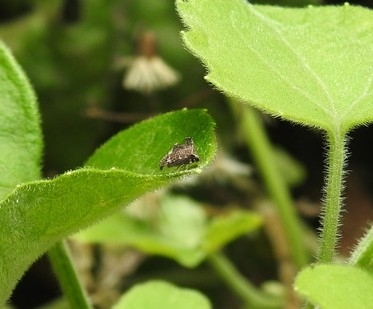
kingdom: Animalia
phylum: Arthropoda
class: Insecta
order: Hemiptera
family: Membracidae
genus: Entylia
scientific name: Entylia carinata
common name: Keeled treehopper
